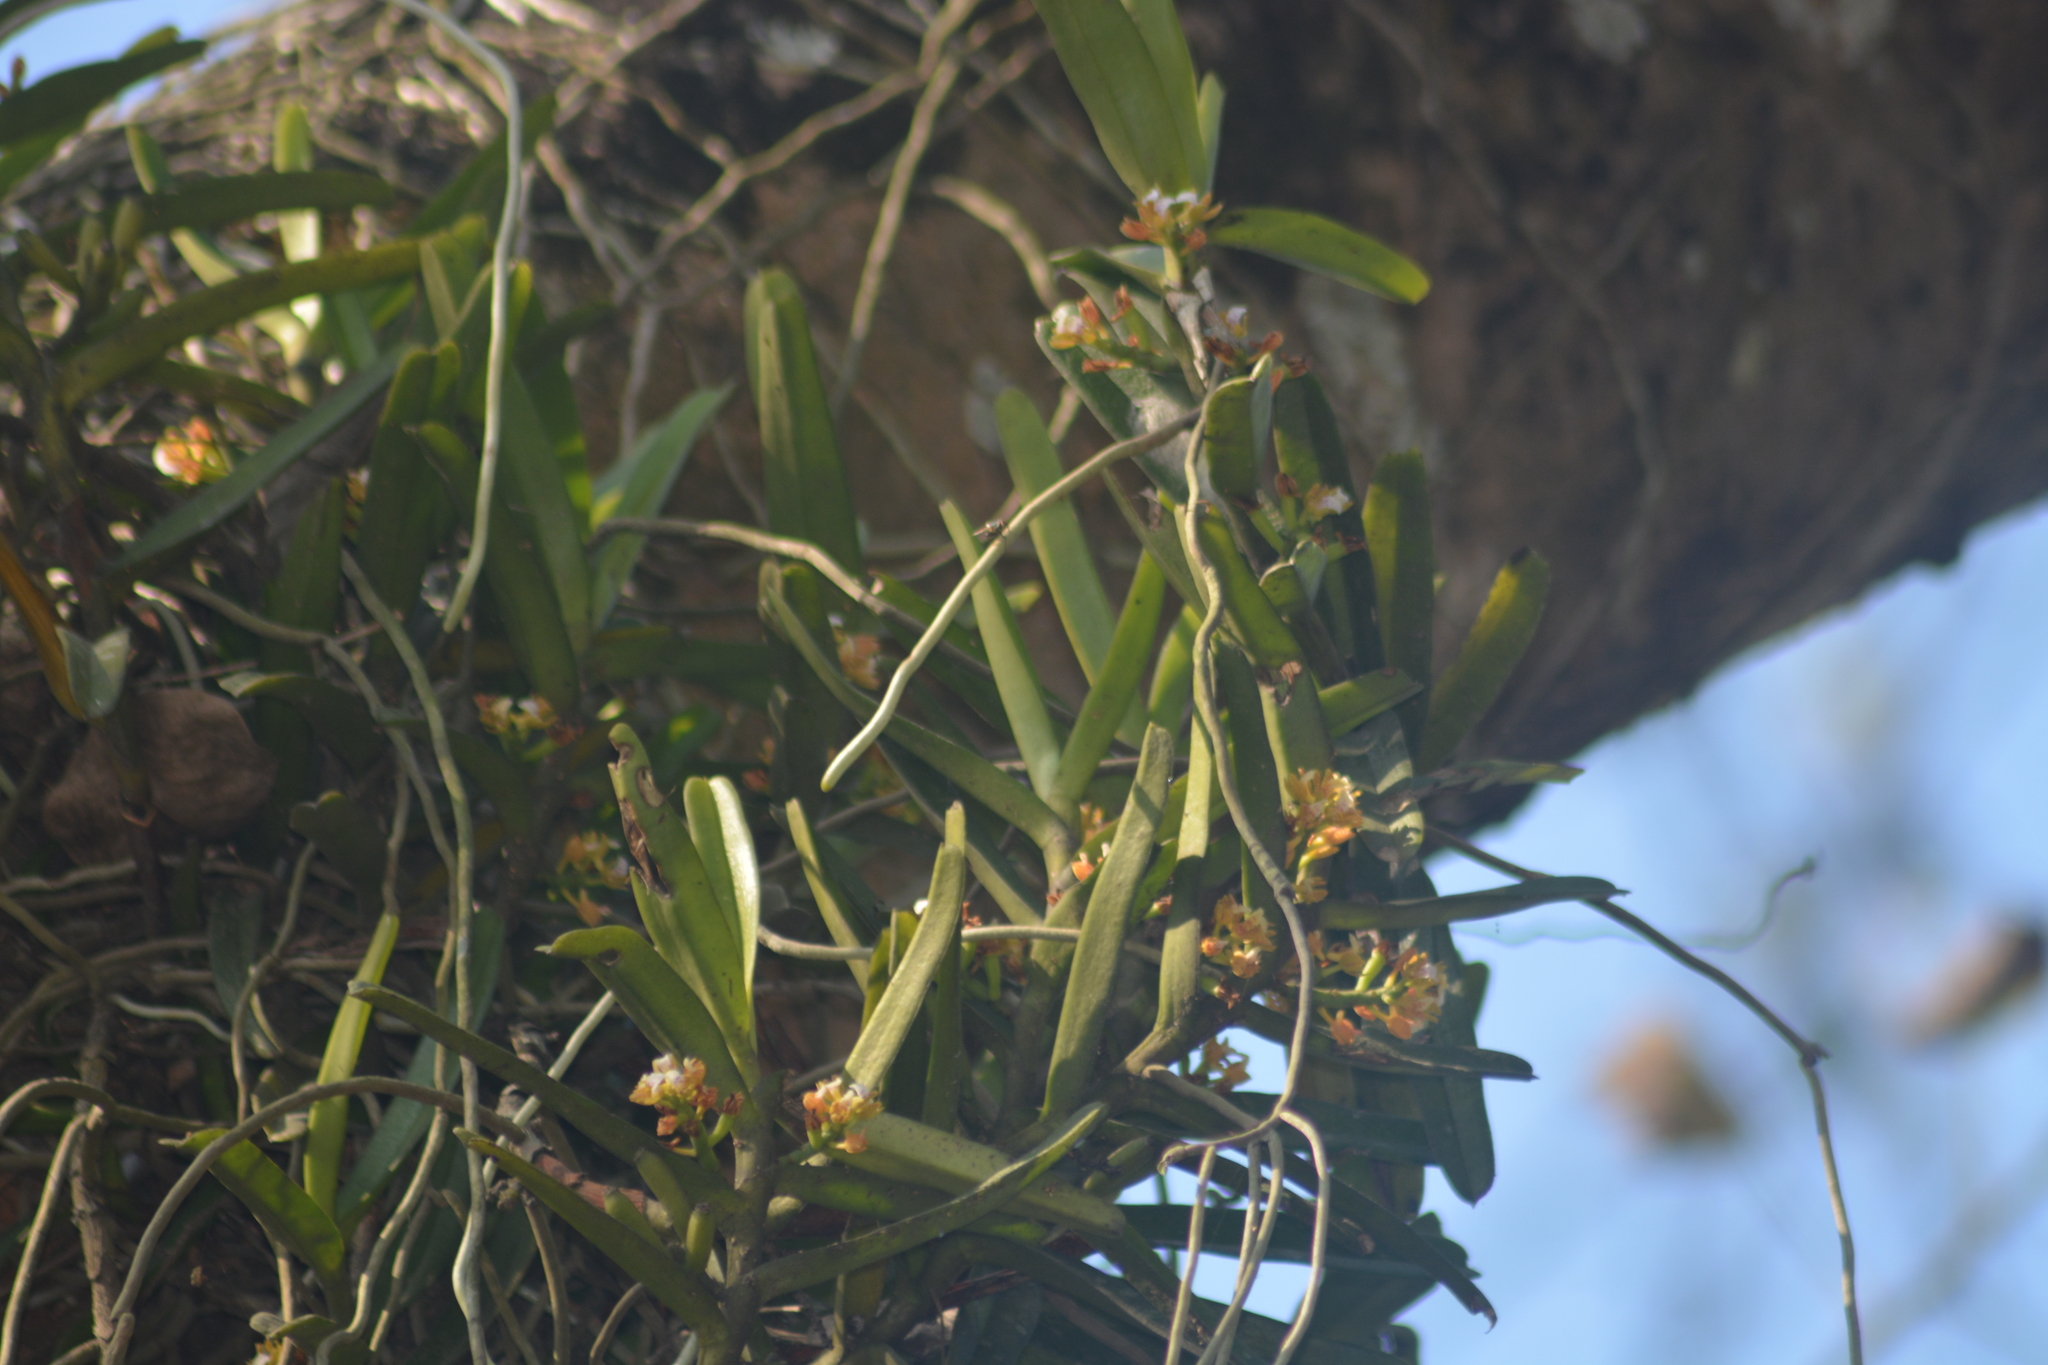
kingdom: Plantae
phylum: Tracheophyta
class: Liliopsida
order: Asparagales
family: Orchidaceae
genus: Acampe
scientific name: Acampe praemorsa
